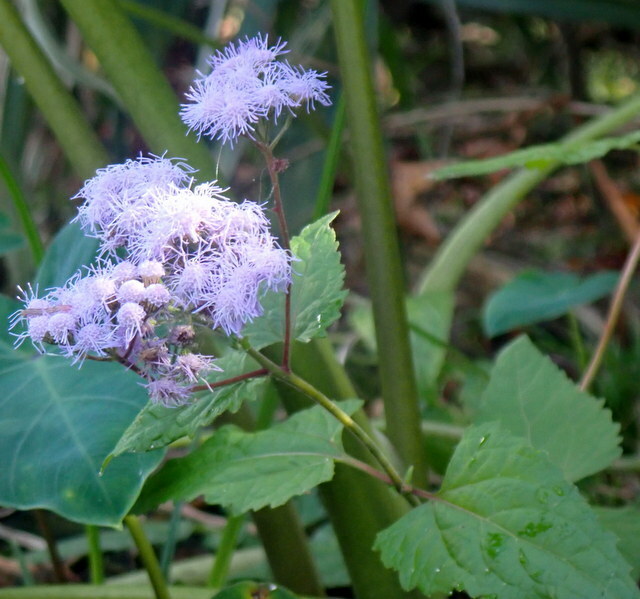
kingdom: Plantae
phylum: Tracheophyta
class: Magnoliopsida
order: Asterales
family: Asteraceae
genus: Conoclinium
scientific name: Conoclinium coelestinum
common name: Blue mistflower
